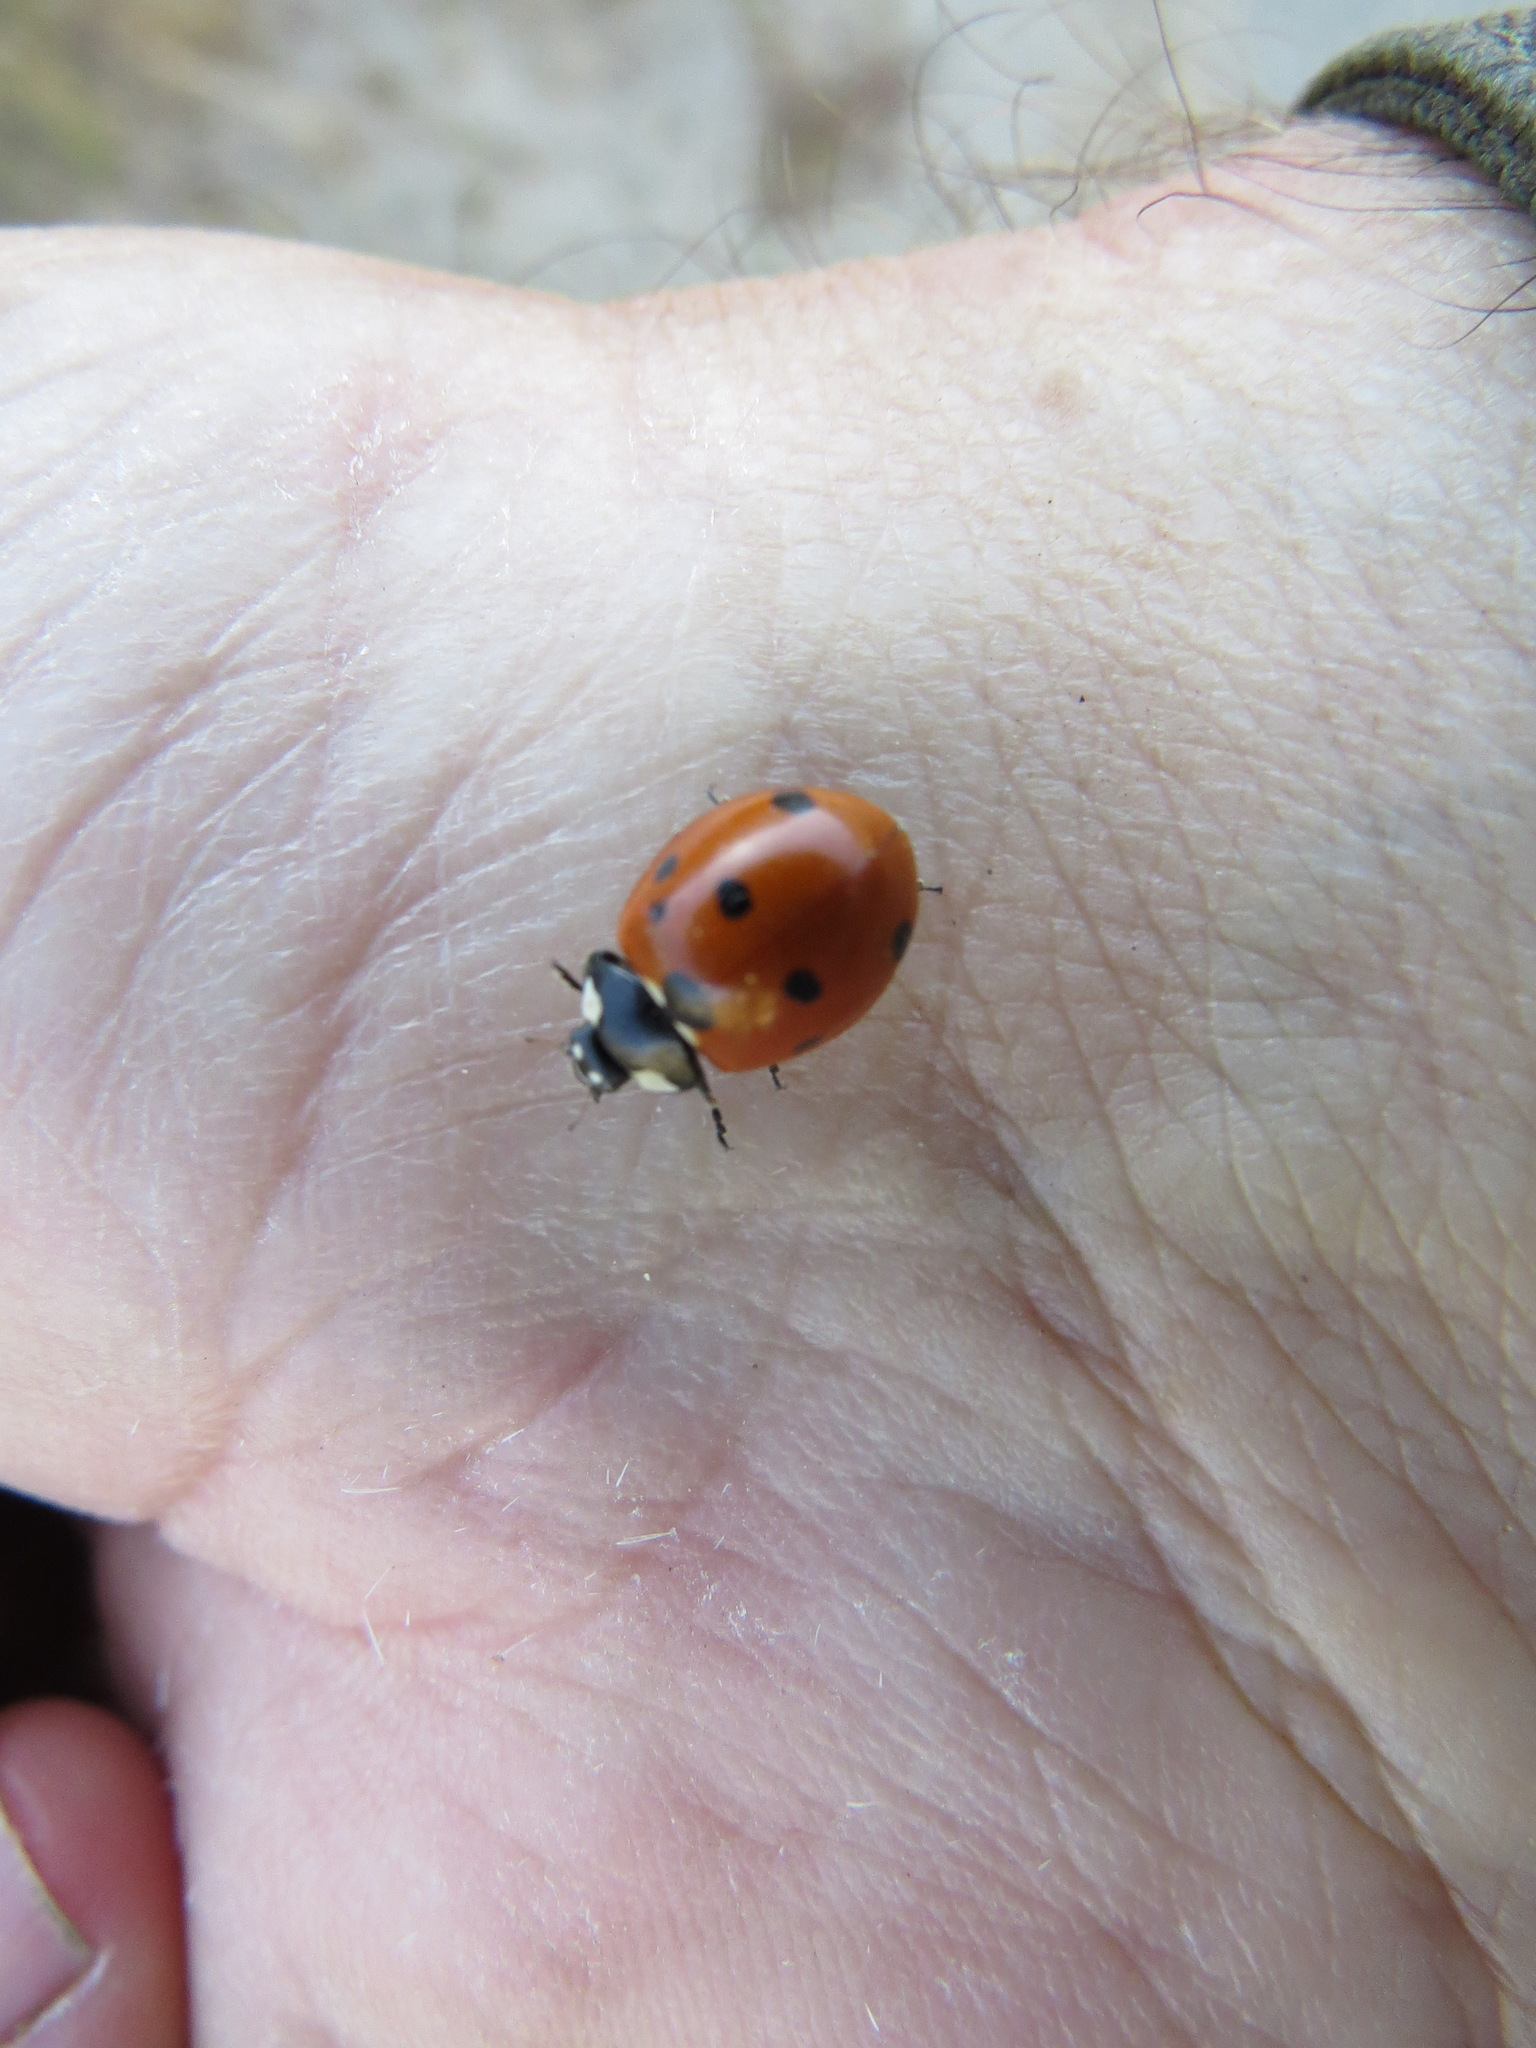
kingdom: Animalia
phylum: Arthropoda
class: Insecta
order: Coleoptera
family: Coccinellidae
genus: Coccinella
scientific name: Coccinella septempunctata
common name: Sevenspotted lady beetle
